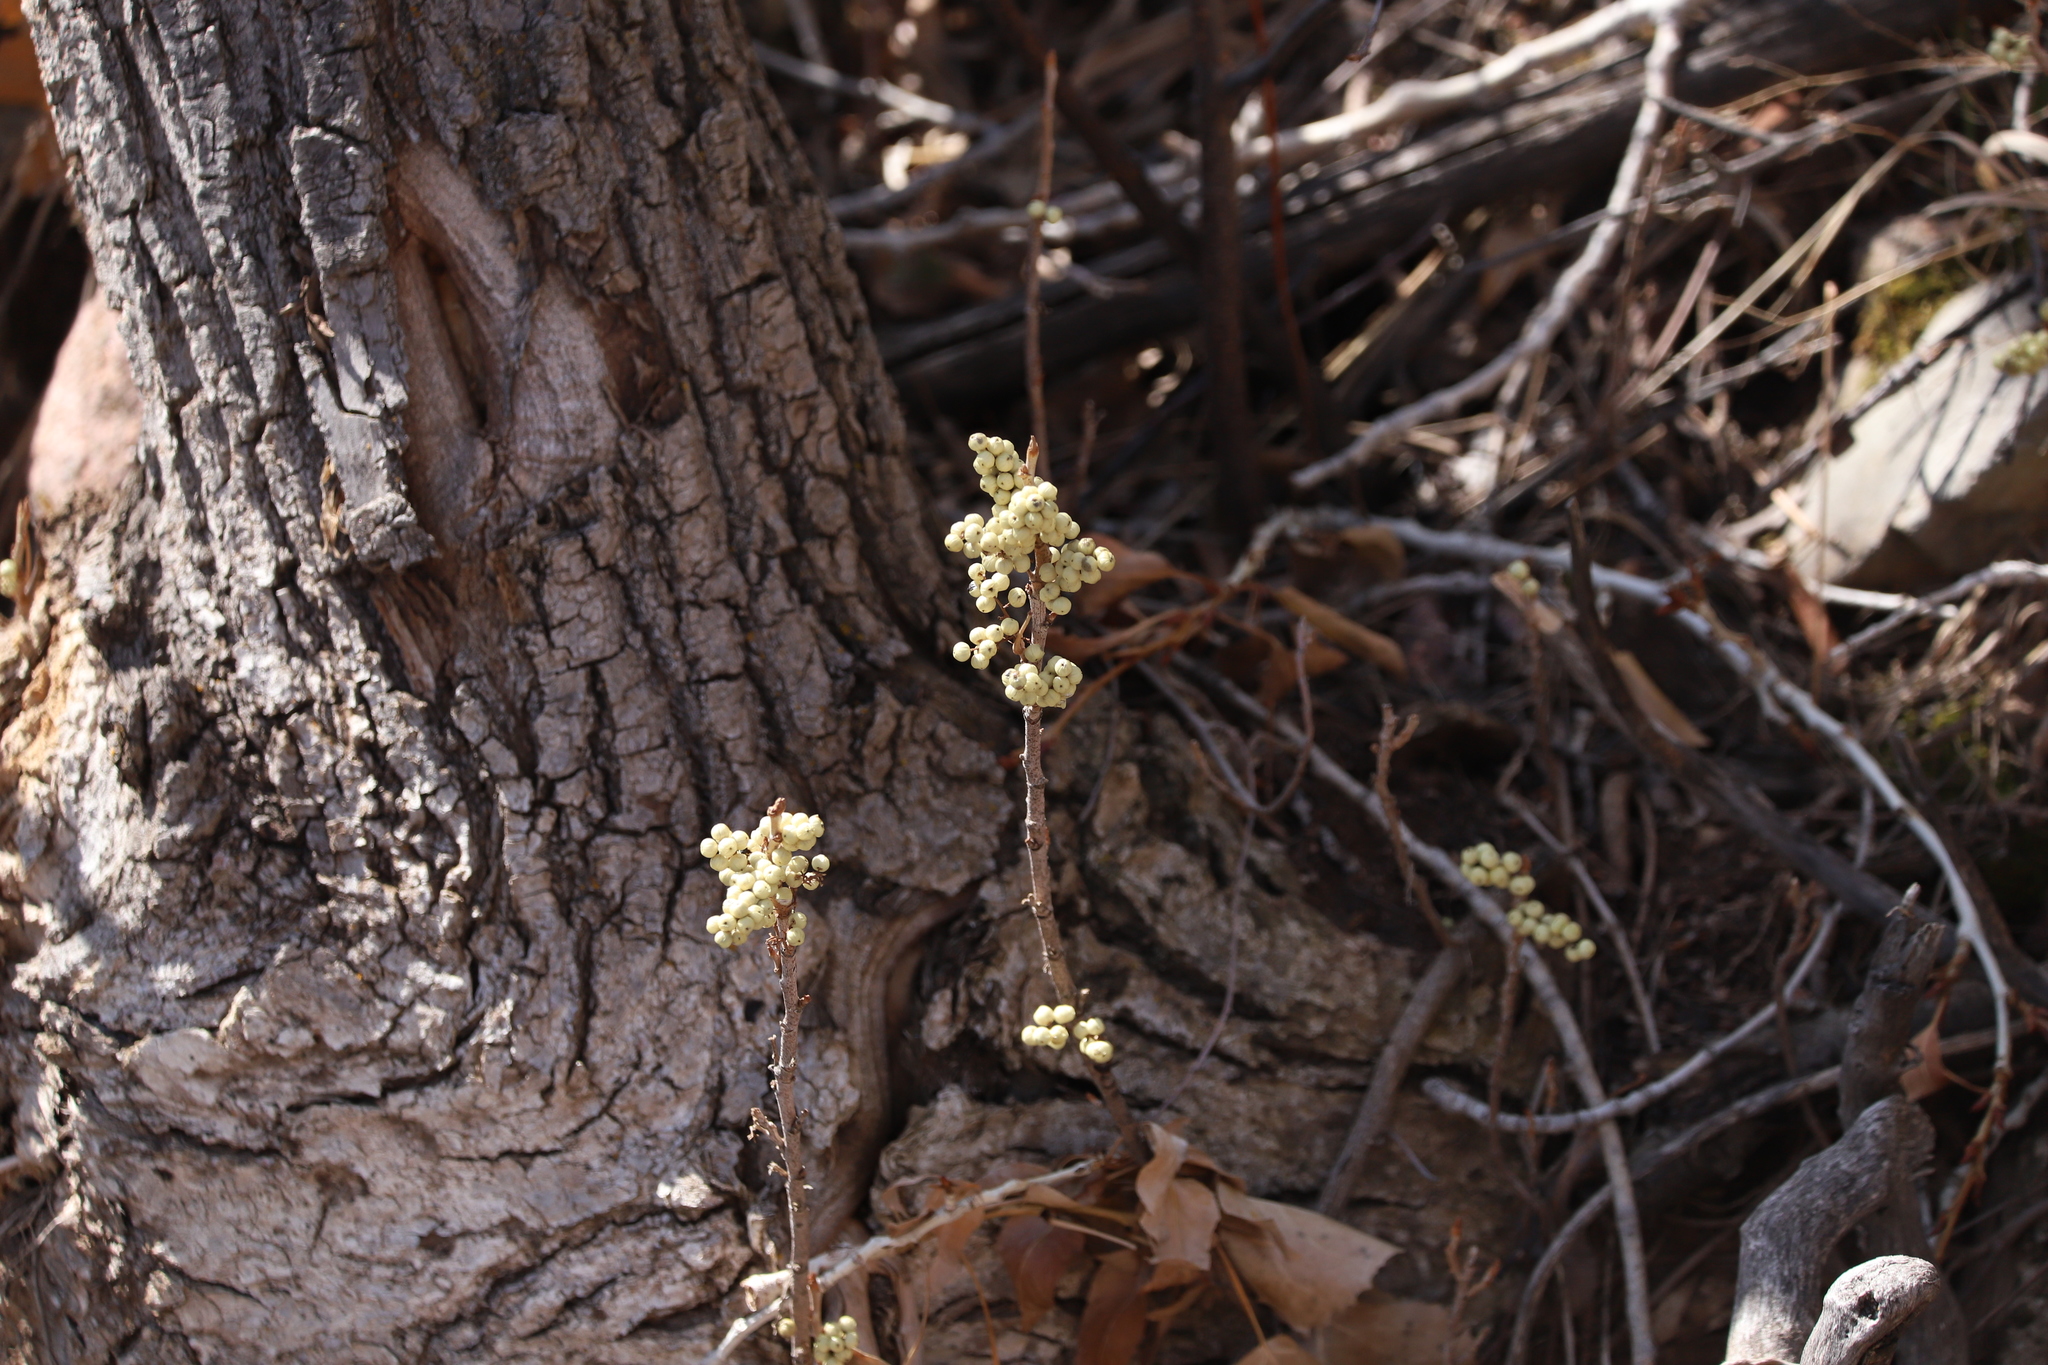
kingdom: Plantae
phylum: Tracheophyta
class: Magnoliopsida
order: Sapindales
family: Anacardiaceae
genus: Toxicodendron
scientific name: Toxicodendron rydbergii
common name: Rydberg's poison-ivy
